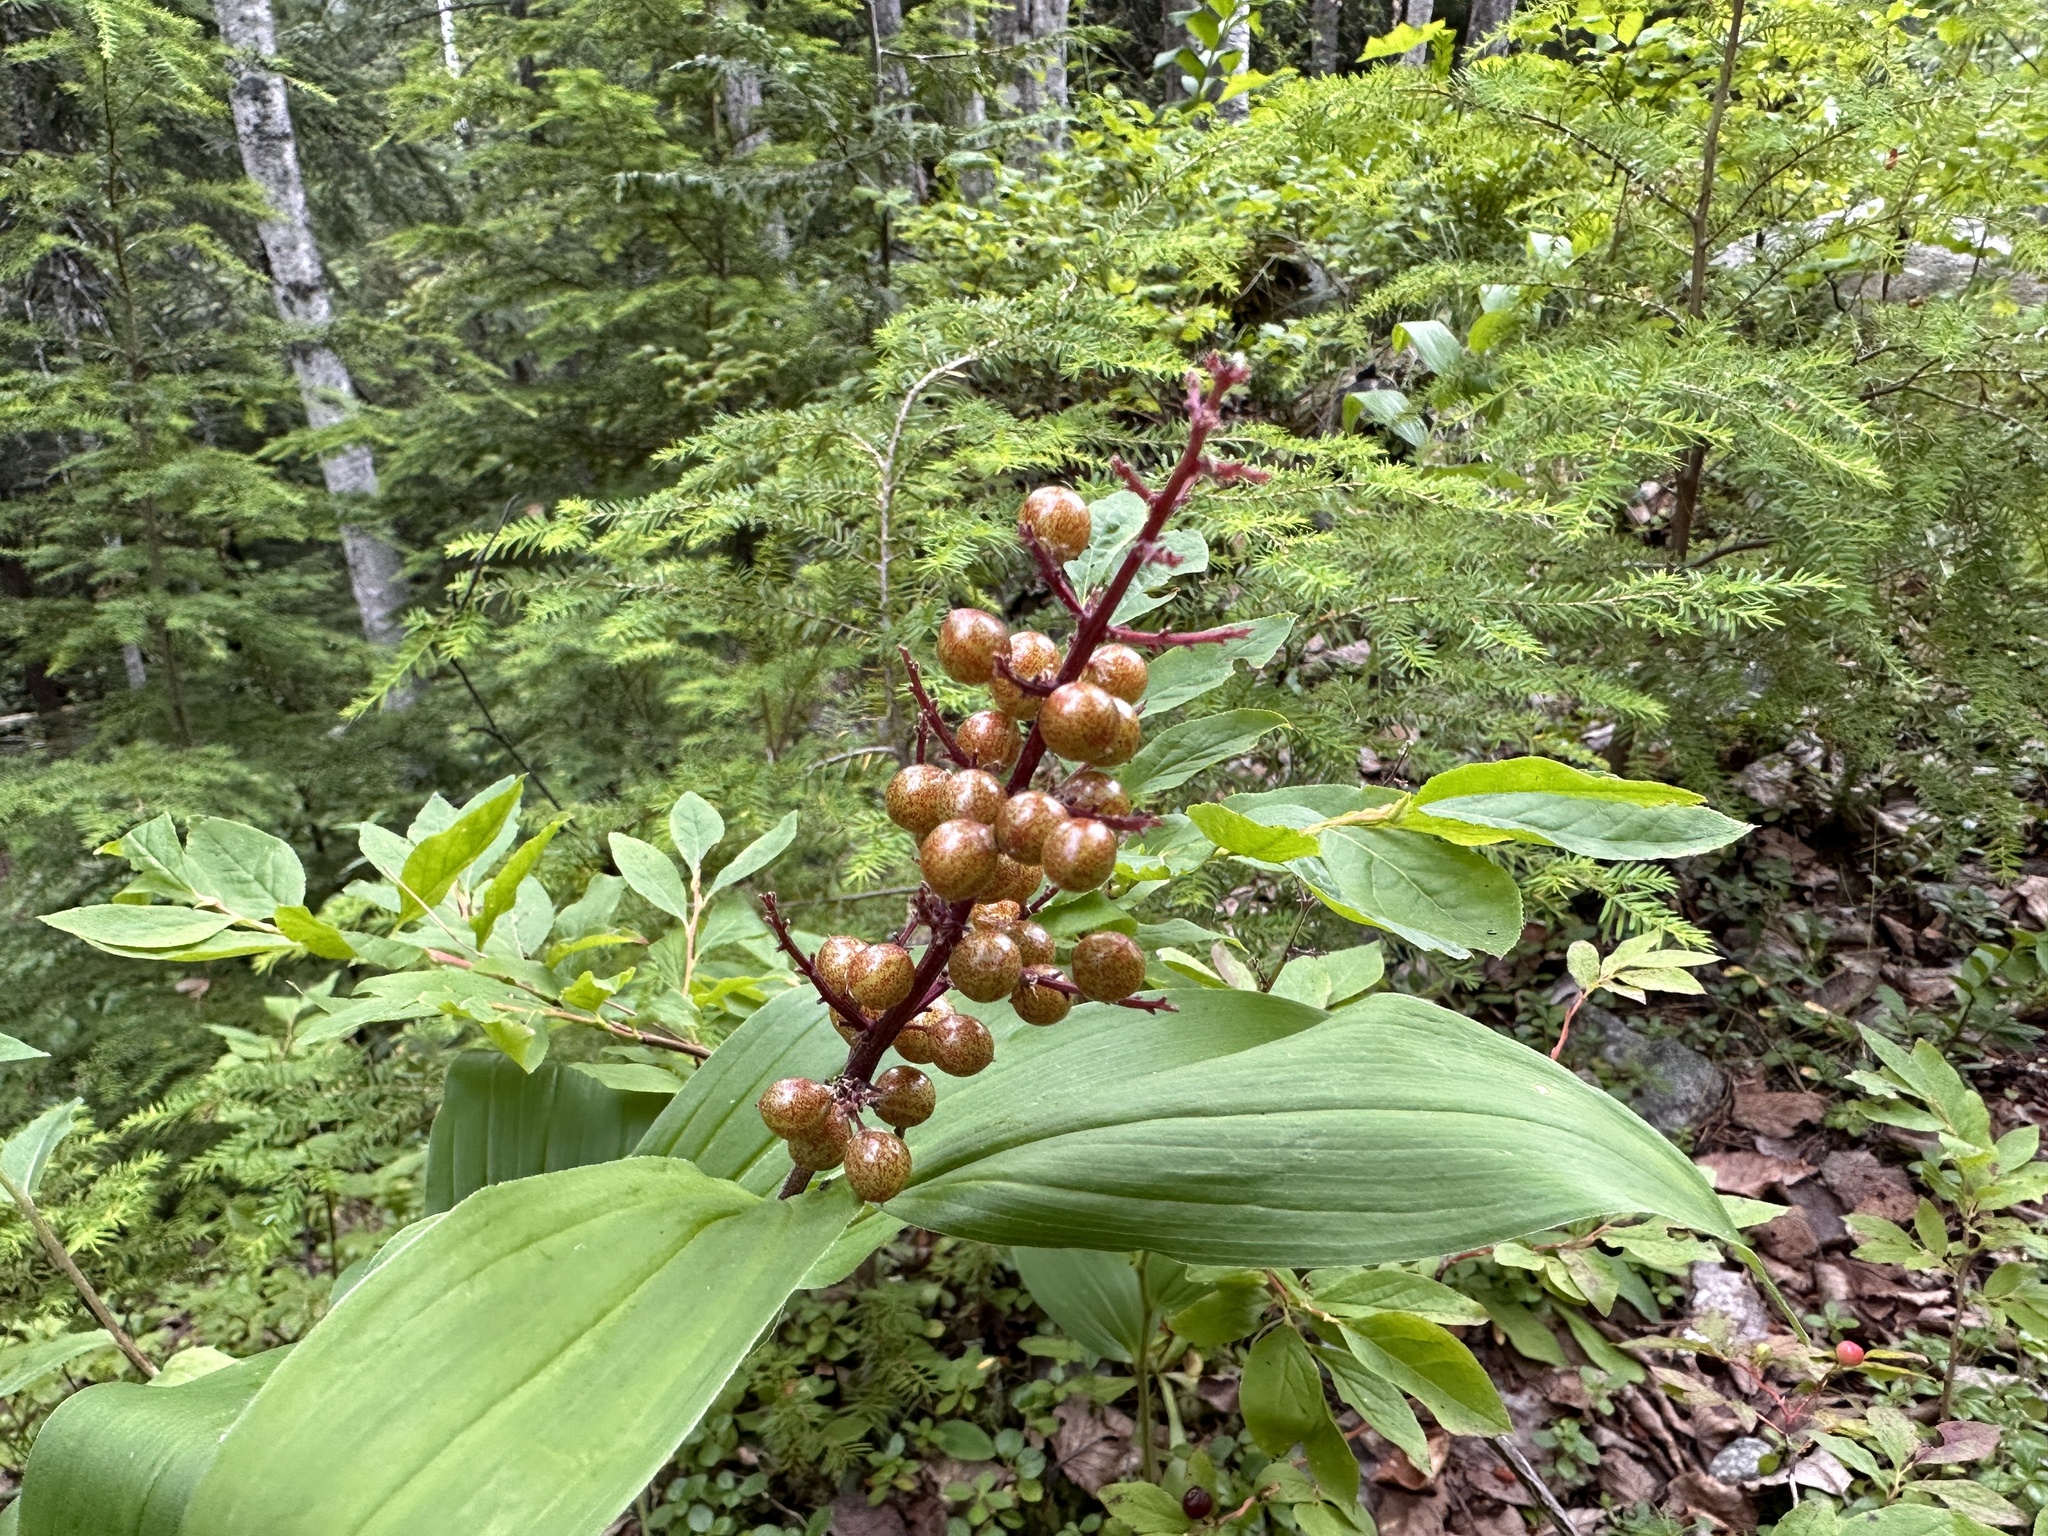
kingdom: Plantae
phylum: Tracheophyta
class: Liliopsida
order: Asparagales
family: Asparagaceae
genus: Maianthemum
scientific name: Maianthemum racemosum
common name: False spikenard
